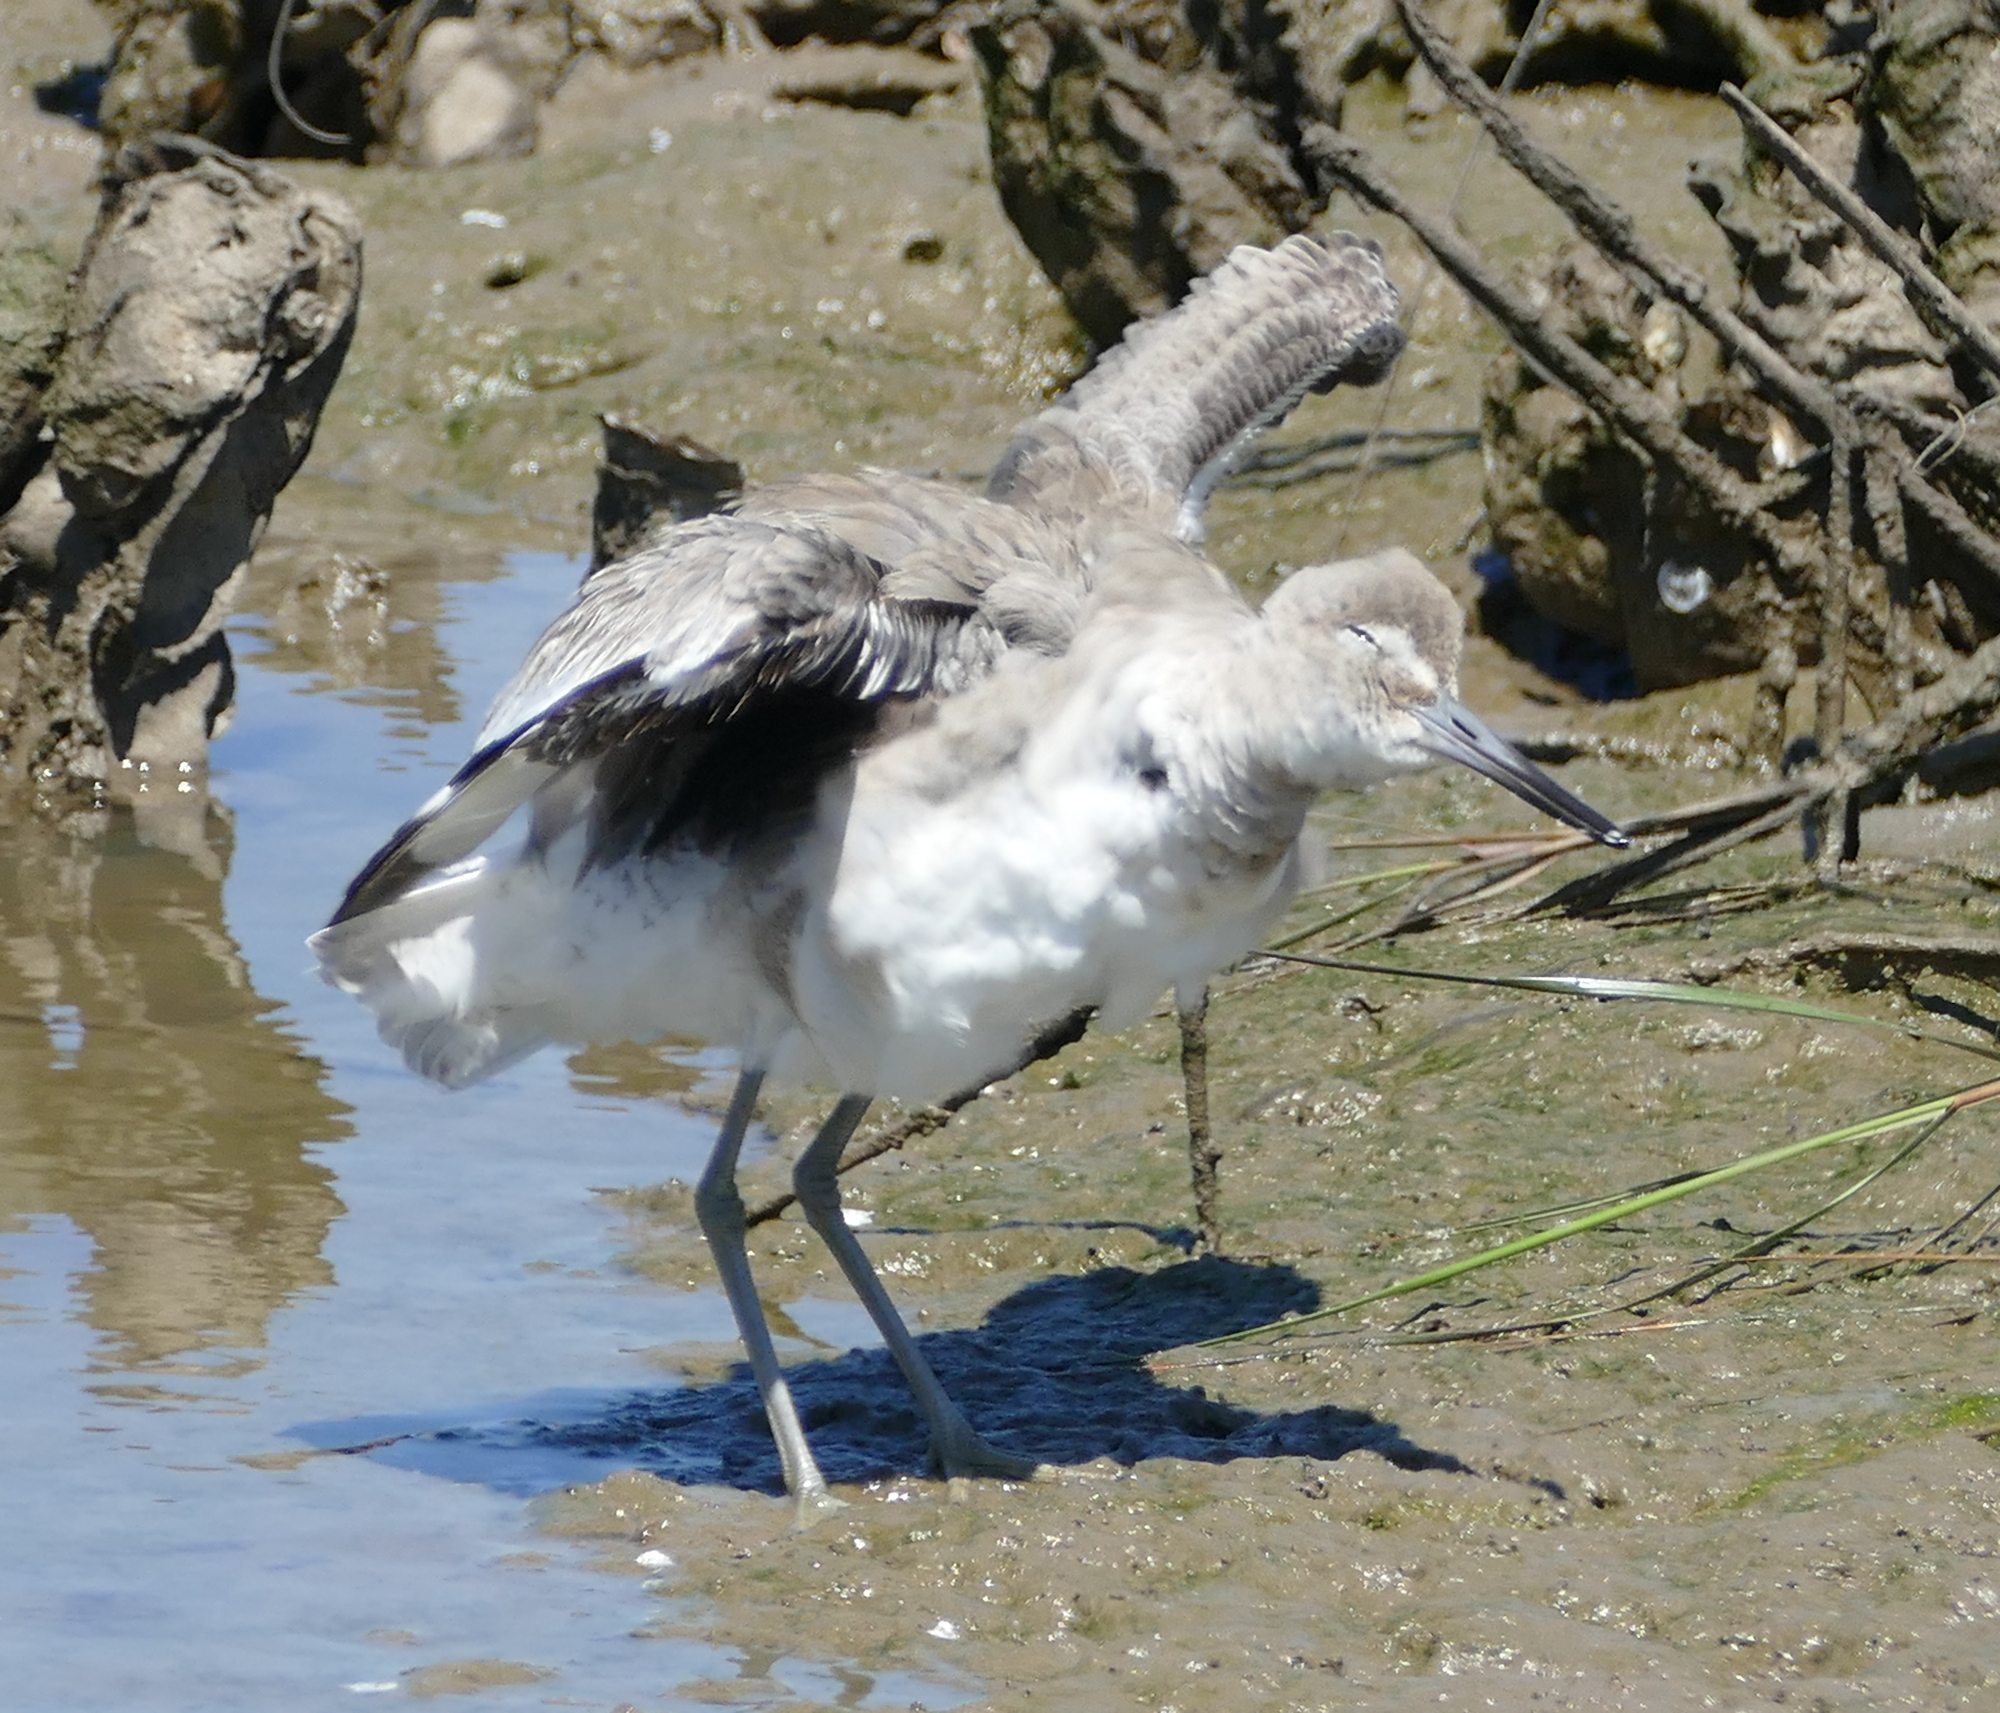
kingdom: Animalia
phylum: Chordata
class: Aves
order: Charadriiformes
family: Scolopacidae
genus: Tringa
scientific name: Tringa semipalmata
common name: Willet
